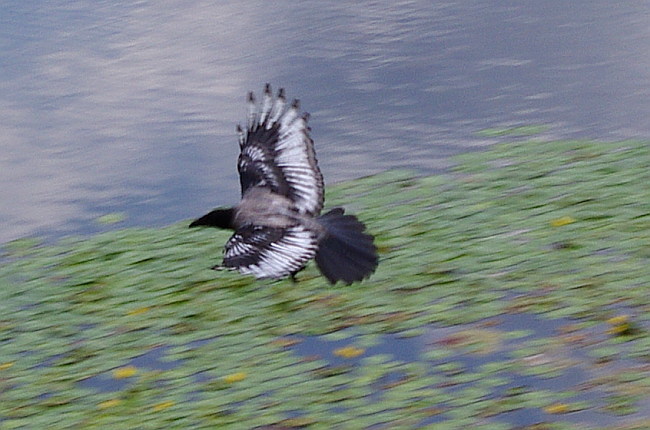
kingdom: Animalia
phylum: Chordata
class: Aves
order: Passeriformes
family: Corvidae
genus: Corvus
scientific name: Corvus cornix
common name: Hooded crow
